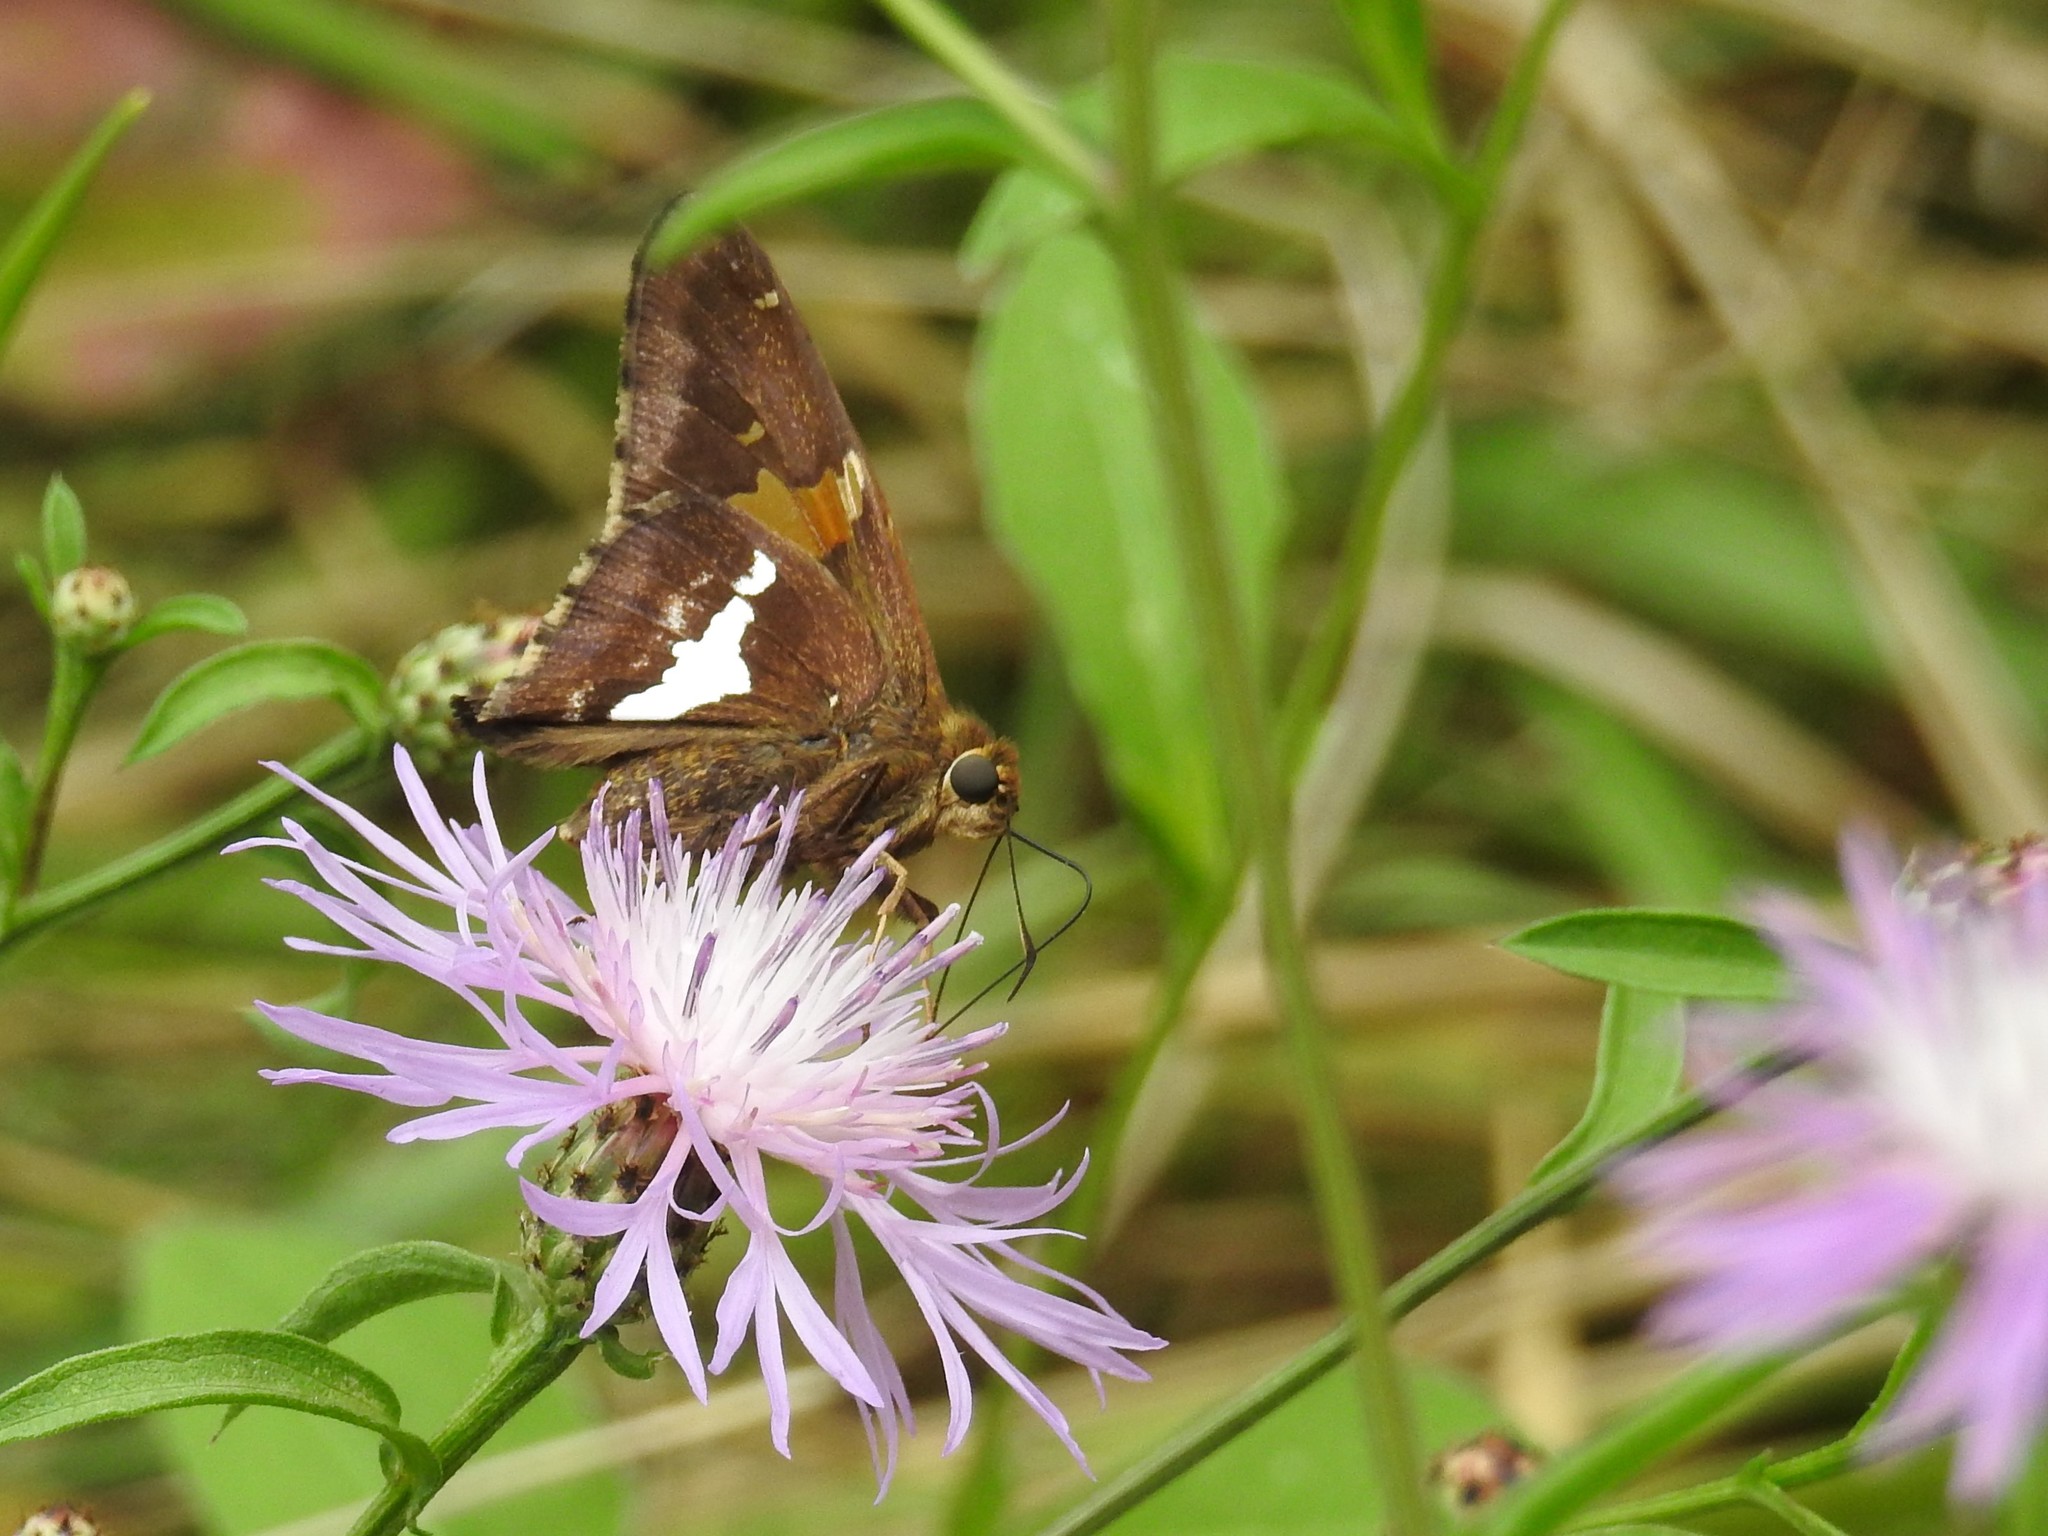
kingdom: Animalia
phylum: Arthropoda
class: Insecta
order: Lepidoptera
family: Hesperiidae
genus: Epargyreus
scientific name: Epargyreus clarus
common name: Silver-spotted skipper
